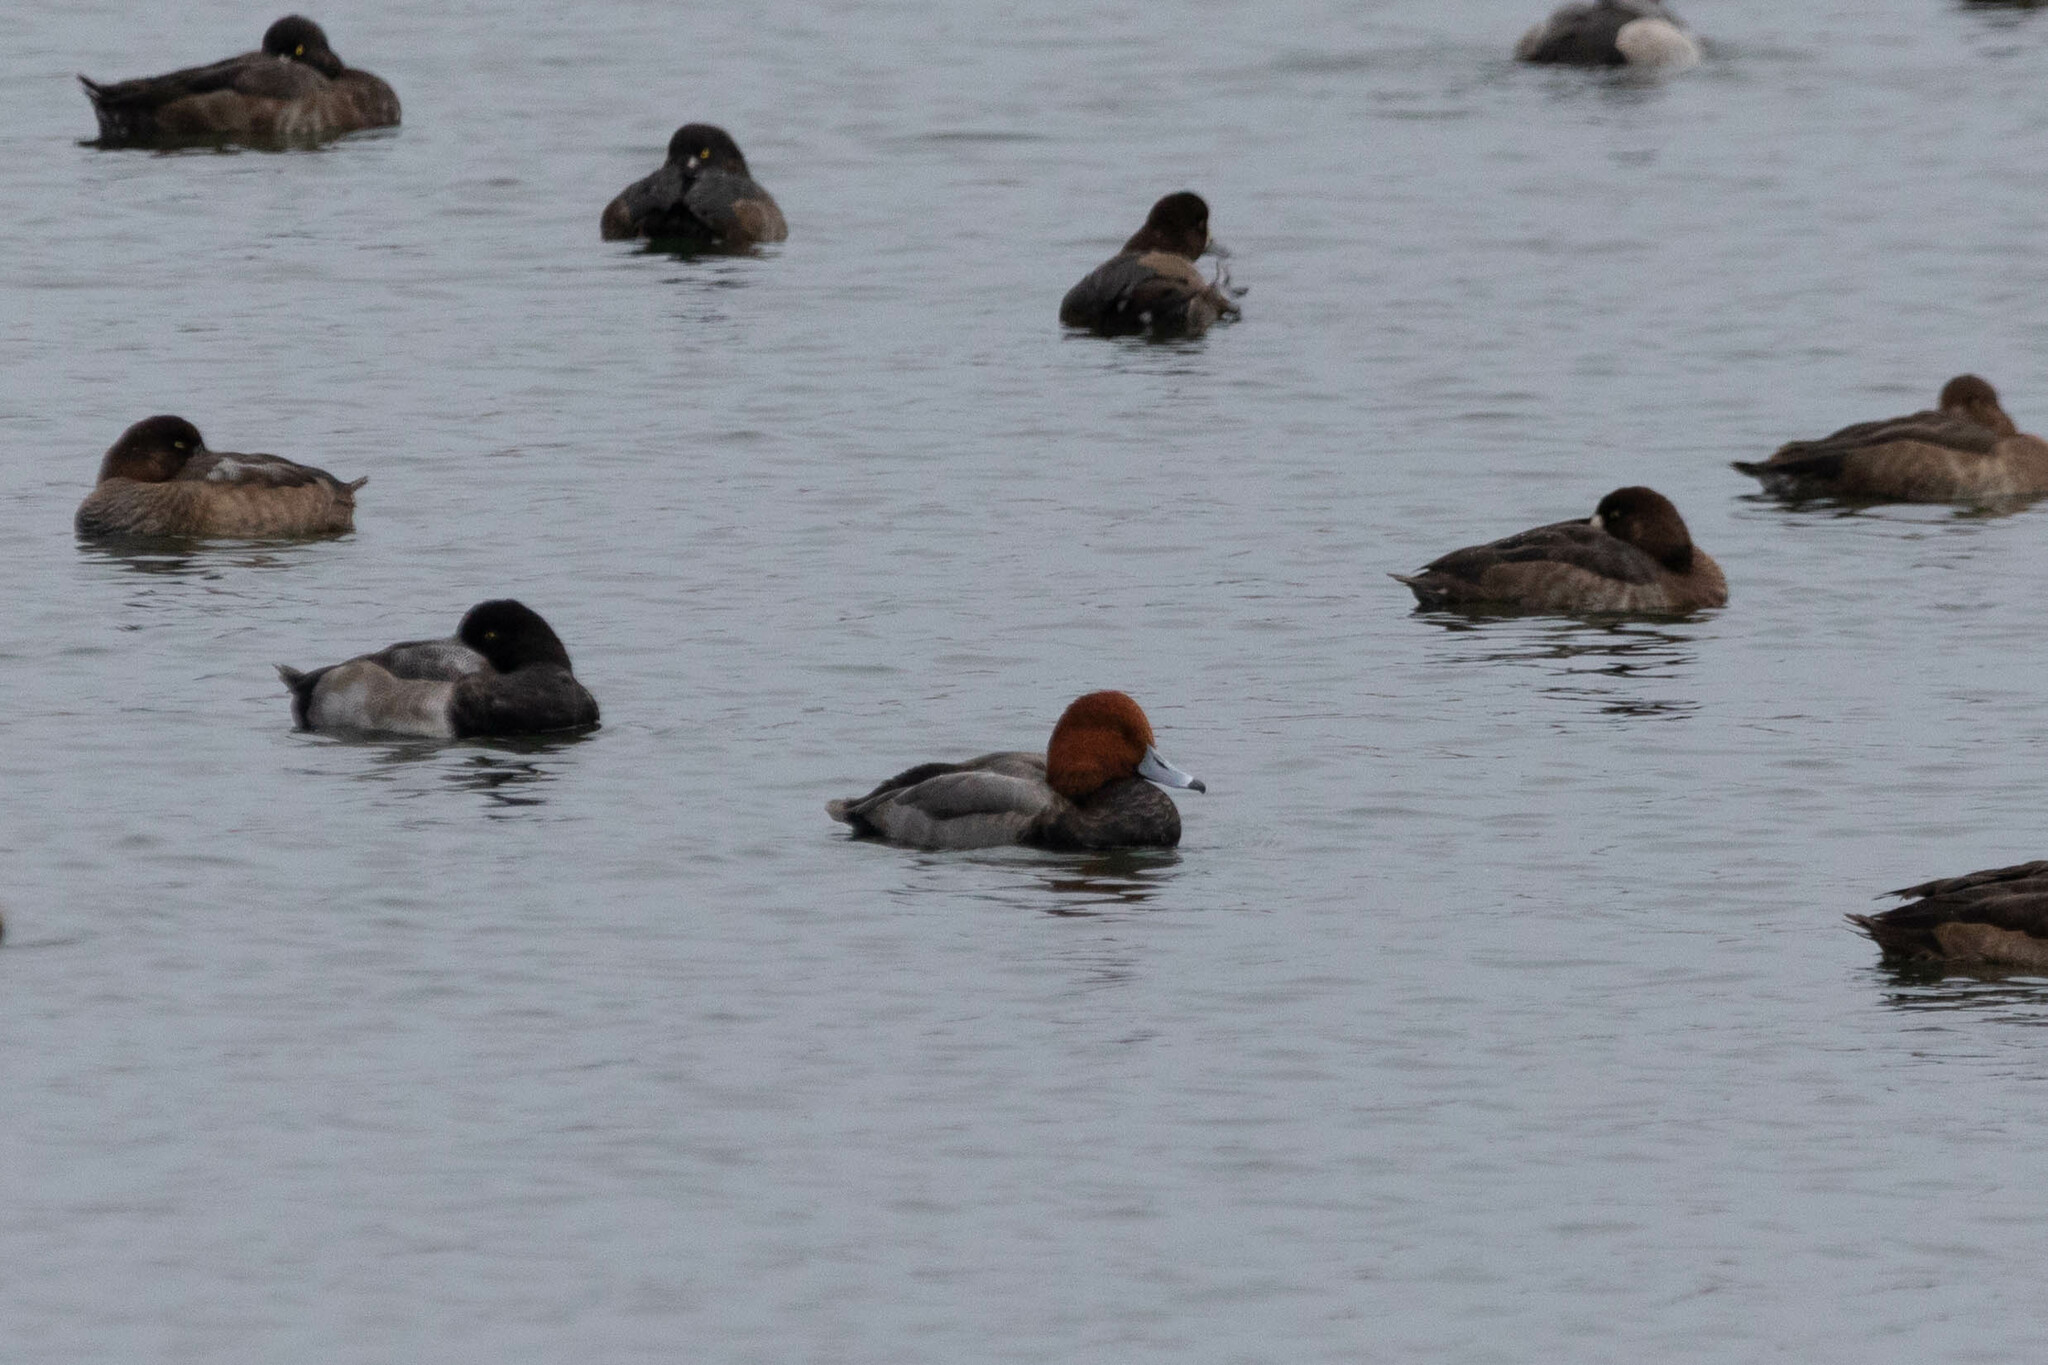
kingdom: Animalia
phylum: Chordata
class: Aves
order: Anseriformes
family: Anatidae
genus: Aythya
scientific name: Aythya americana
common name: Redhead
